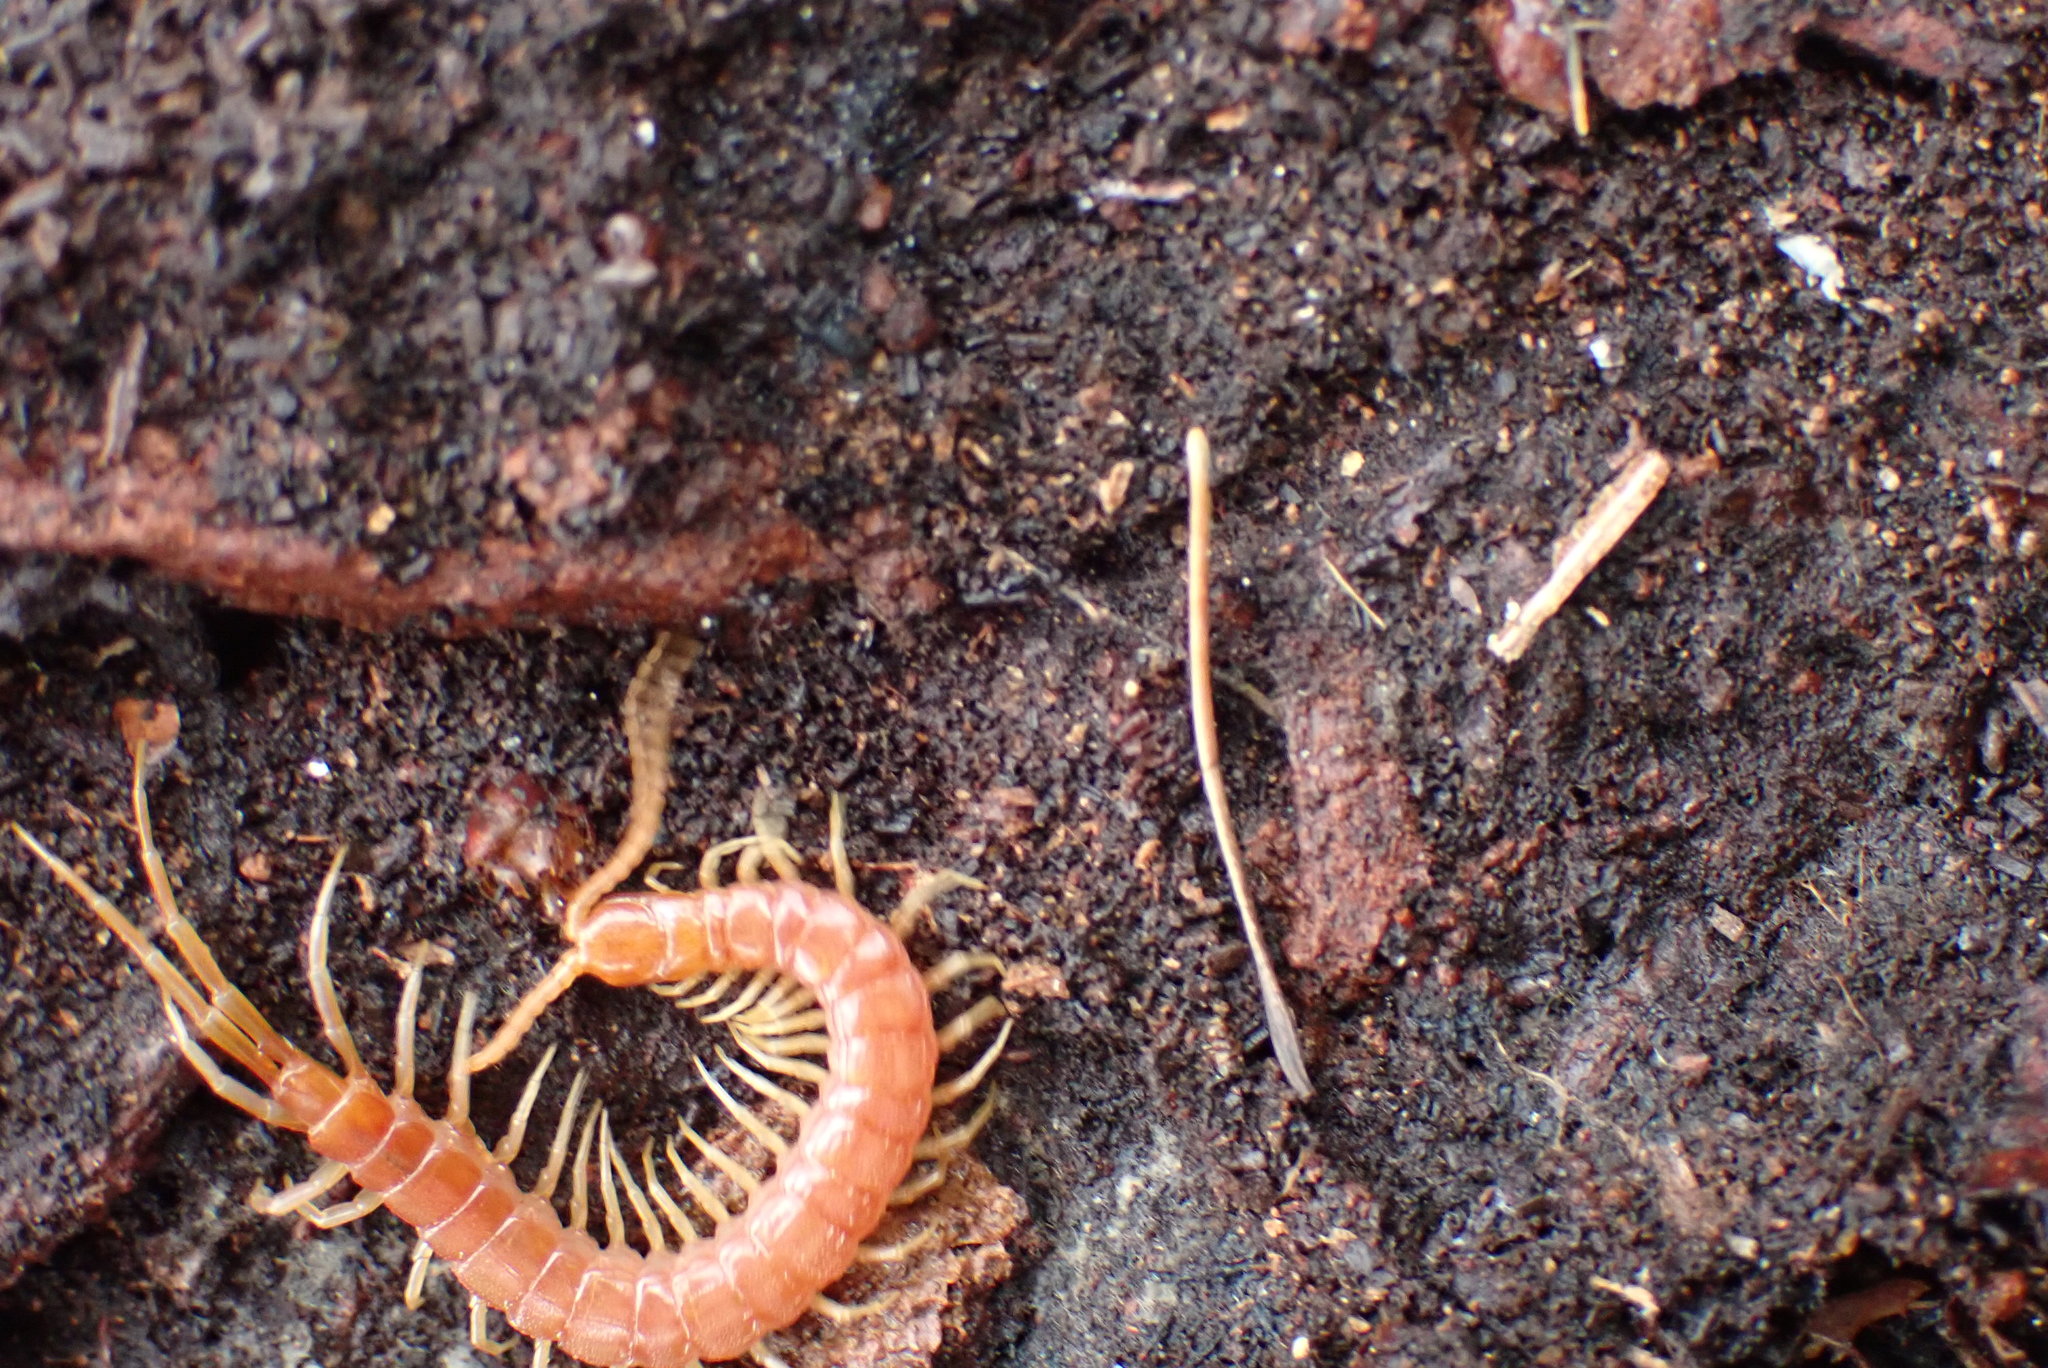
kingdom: Animalia
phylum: Arthropoda
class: Chilopoda
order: Scolopendromorpha
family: Scolopocryptopidae
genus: Scolopocryptops
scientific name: Scolopocryptops spinicaudus
